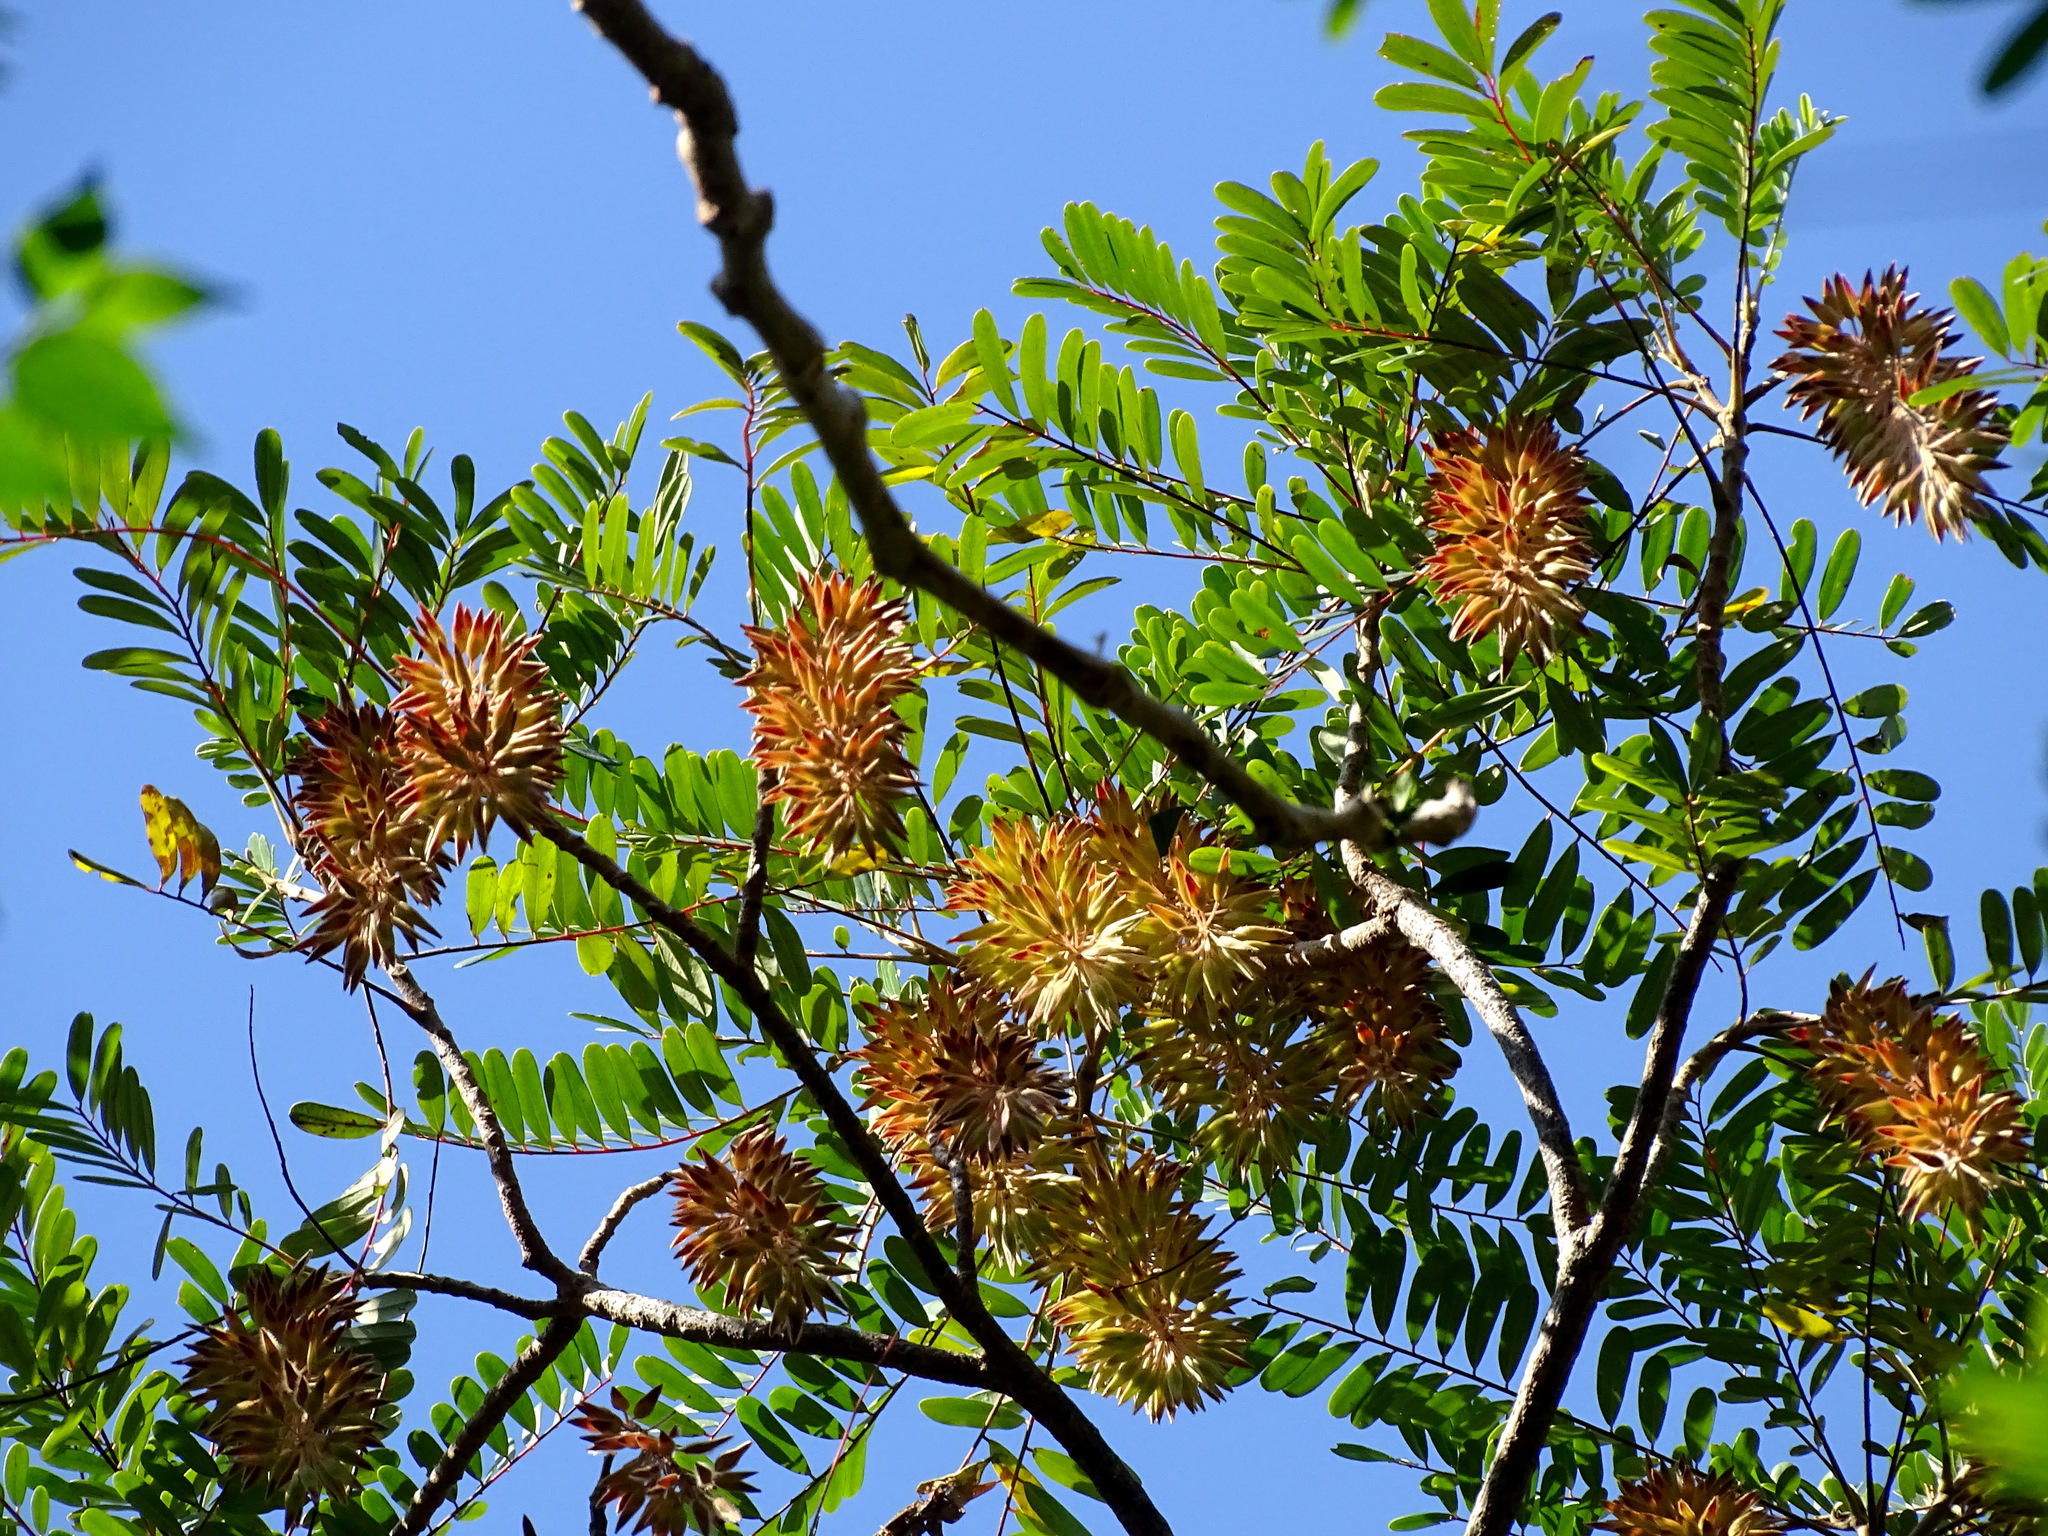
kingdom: Plantae
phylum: Tracheophyta
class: Magnoliopsida
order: Picramniales
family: Picramniaceae
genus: Alvaradoa
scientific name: Alvaradoa amorphoides
